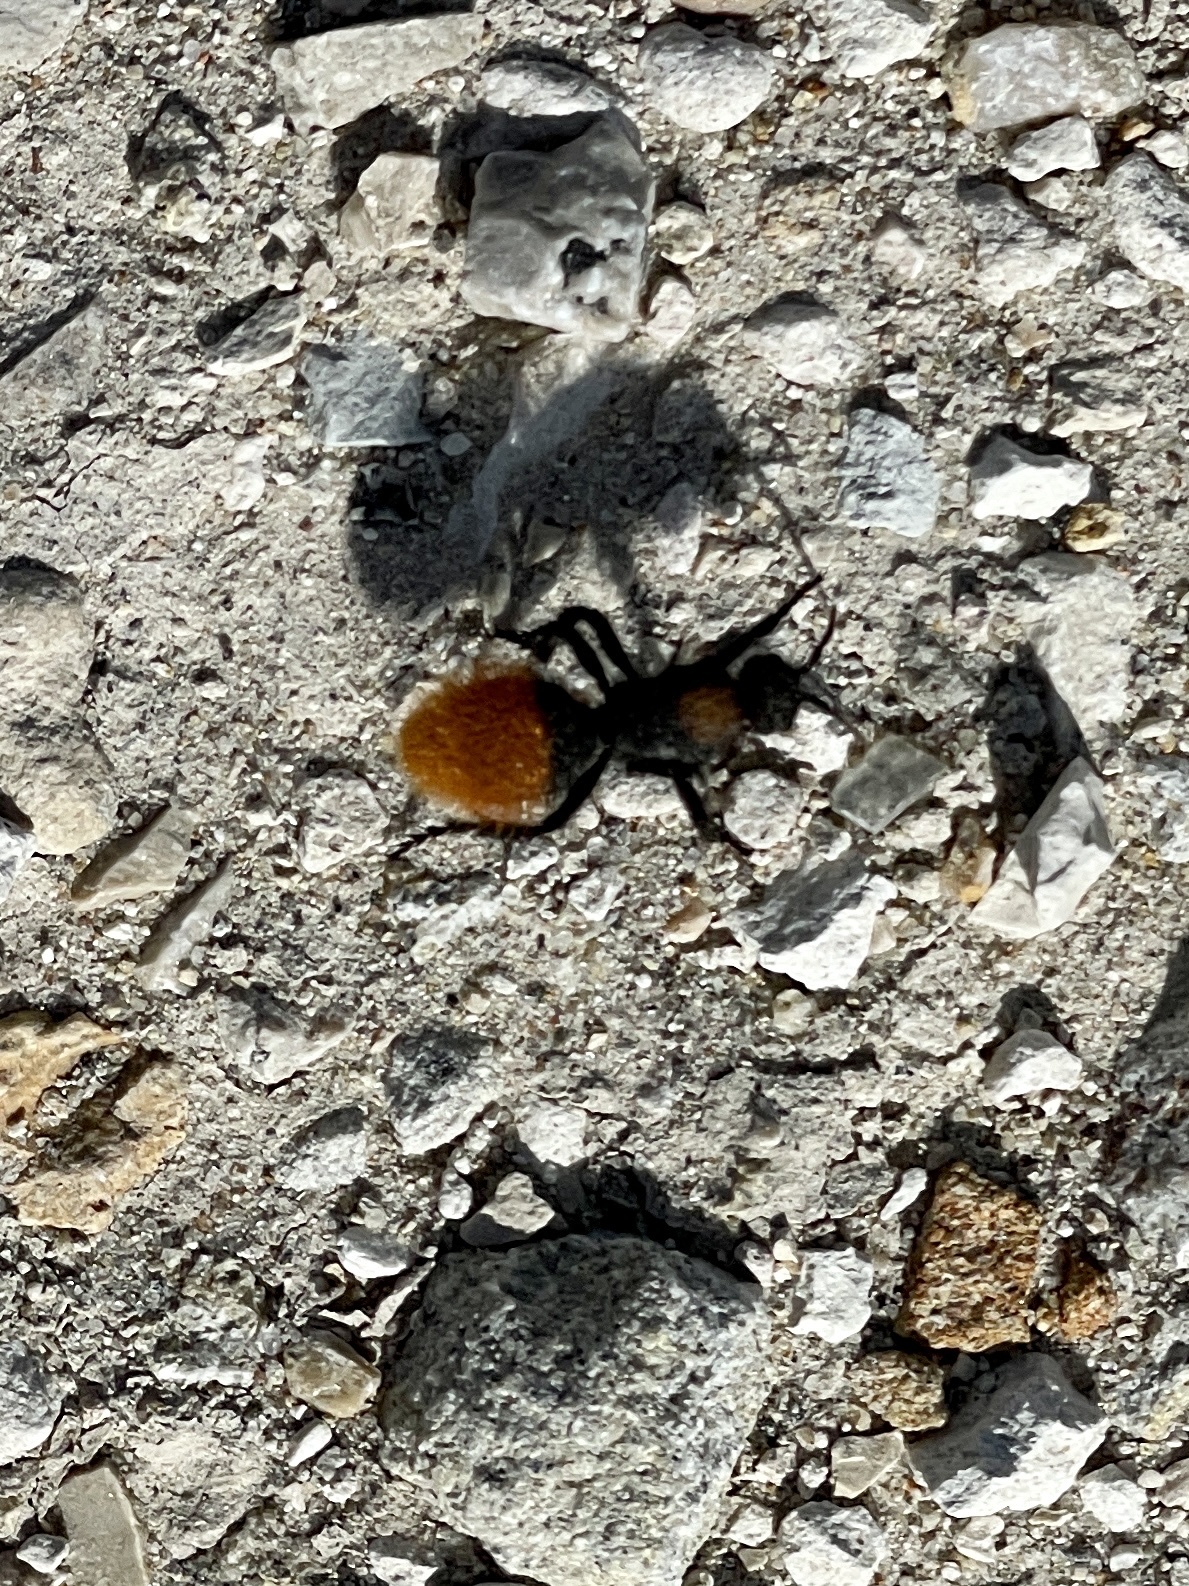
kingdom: Animalia
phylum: Arthropoda
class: Insecta
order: Hymenoptera
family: Mutillidae
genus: Dasymutilla
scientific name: Dasymutilla
